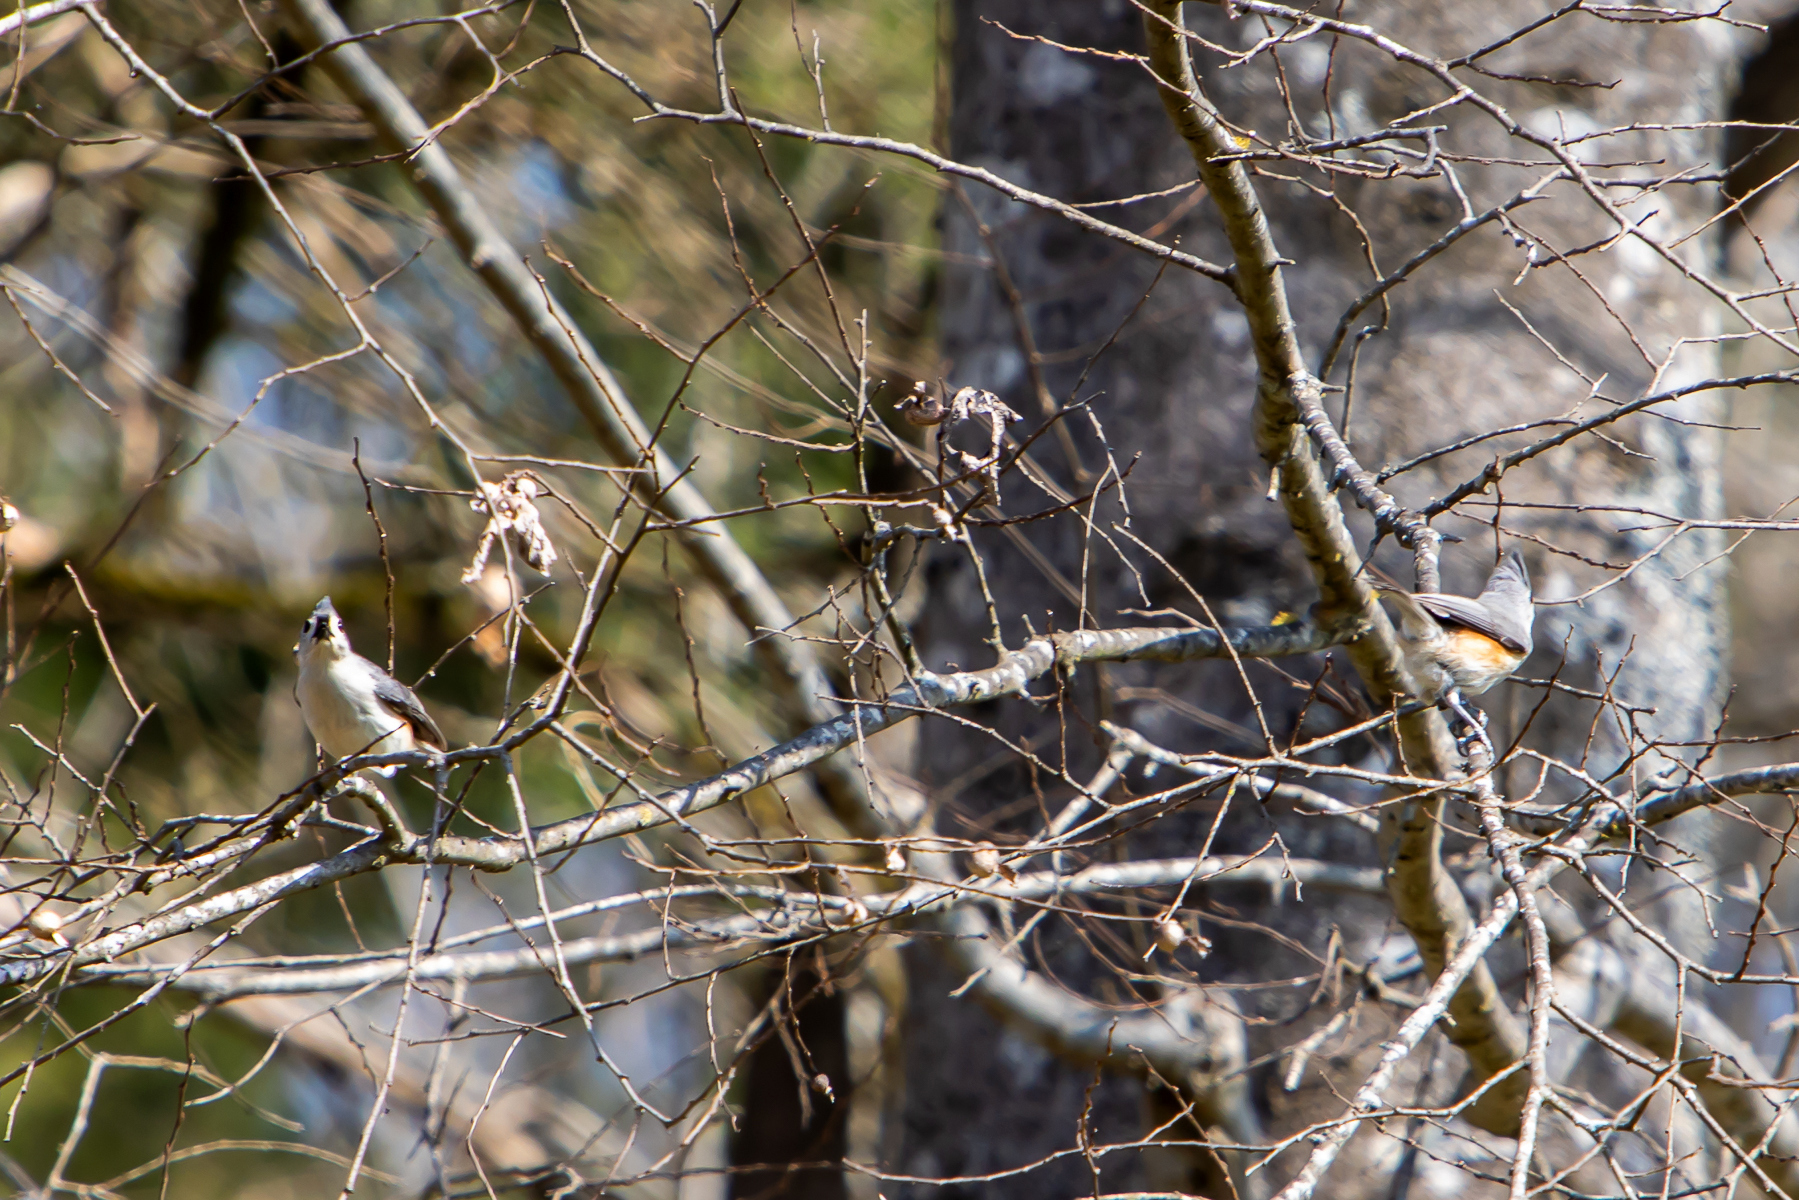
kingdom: Animalia
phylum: Chordata
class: Aves
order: Passeriformes
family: Paridae
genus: Baeolophus
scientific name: Baeolophus bicolor
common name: Tufted titmouse
